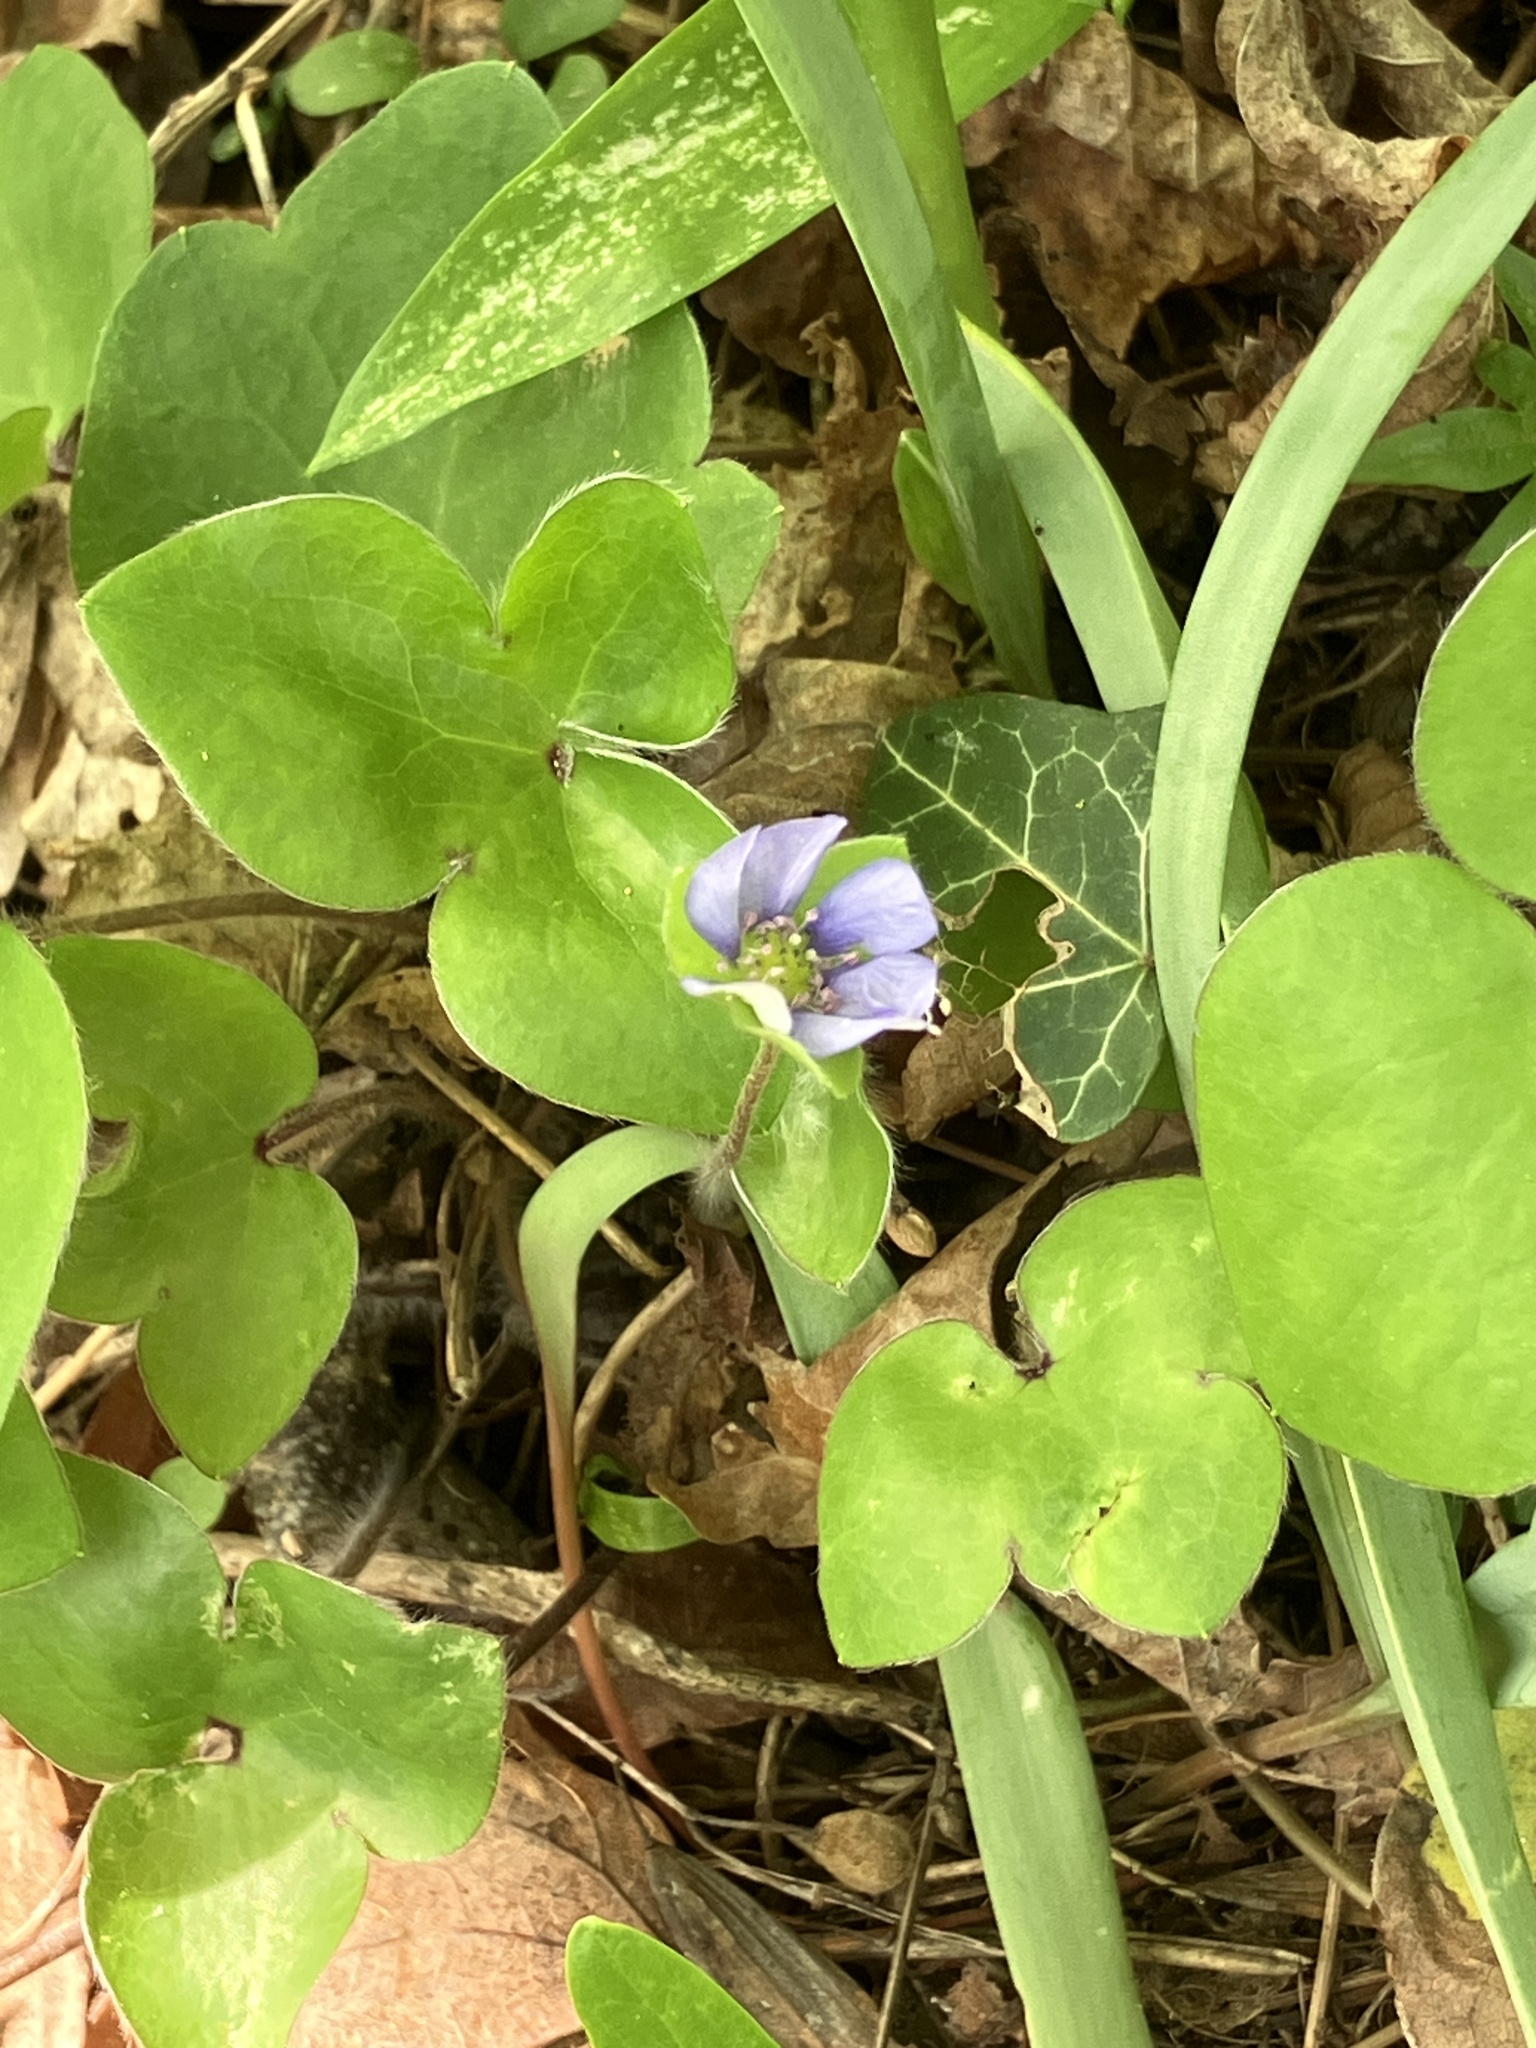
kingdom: Plantae
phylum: Tracheophyta
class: Magnoliopsida
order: Ranunculales
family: Ranunculaceae
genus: Hepatica
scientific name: Hepatica nobilis
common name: Liverleaf
